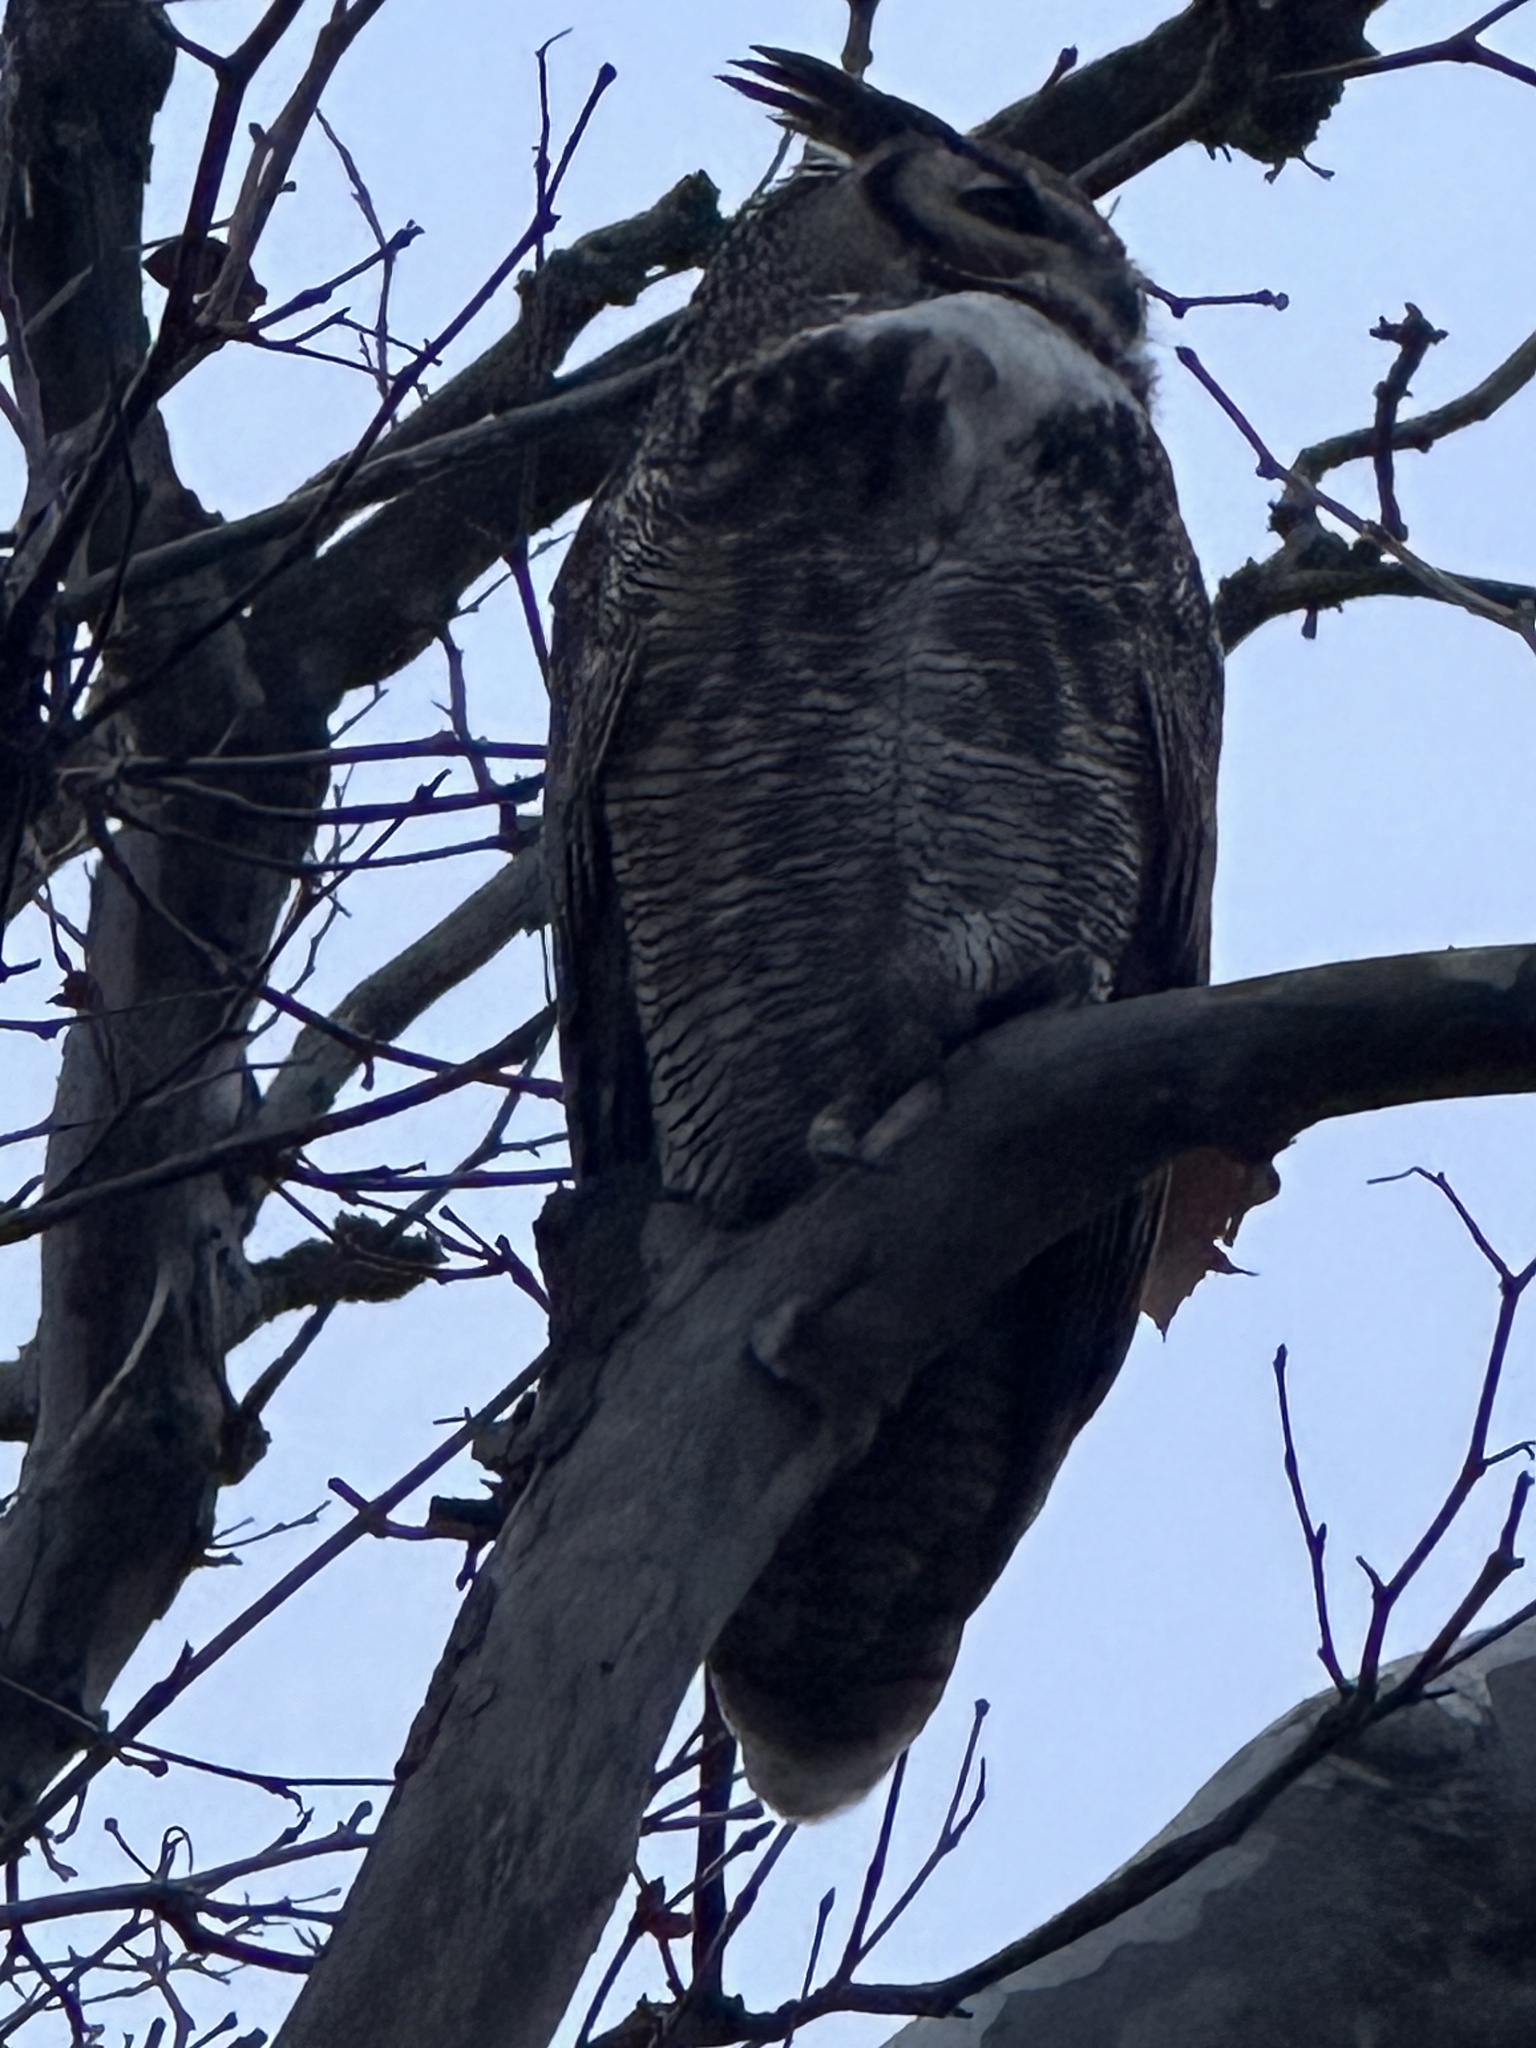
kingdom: Animalia
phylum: Chordata
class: Aves
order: Strigiformes
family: Strigidae
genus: Bubo
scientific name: Bubo virginianus
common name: Great horned owl
